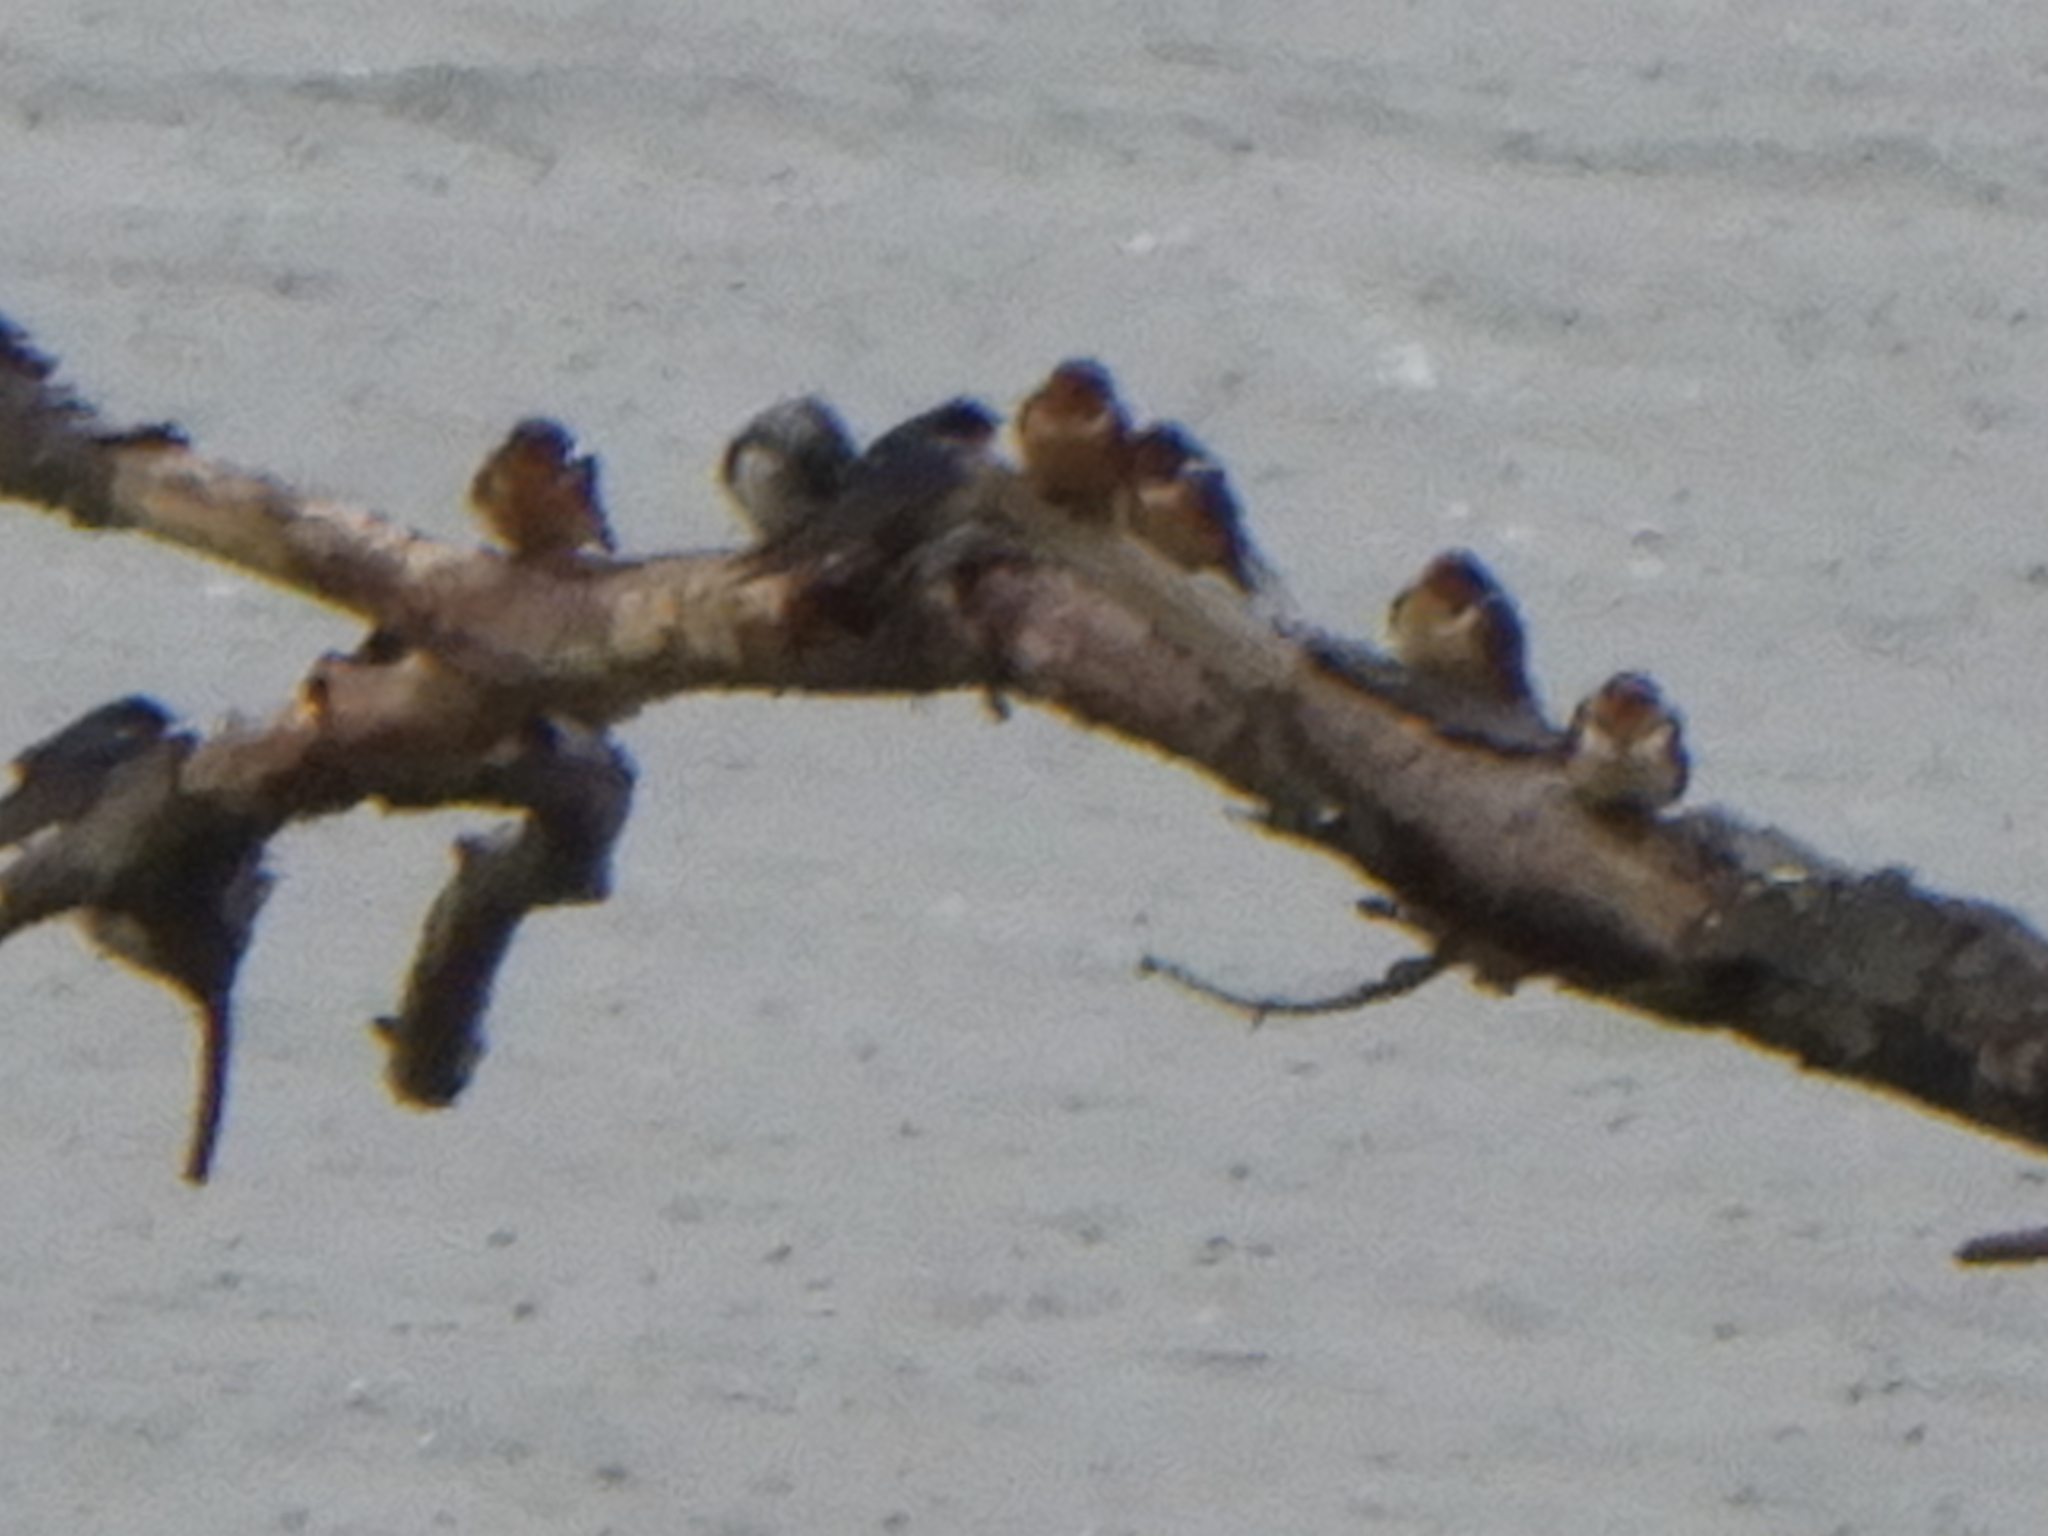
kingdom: Animalia
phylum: Chordata
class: Aves
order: Passeriformes
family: Hirundinidae
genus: Hirundo
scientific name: Hirundo rustica
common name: Barn swallow
